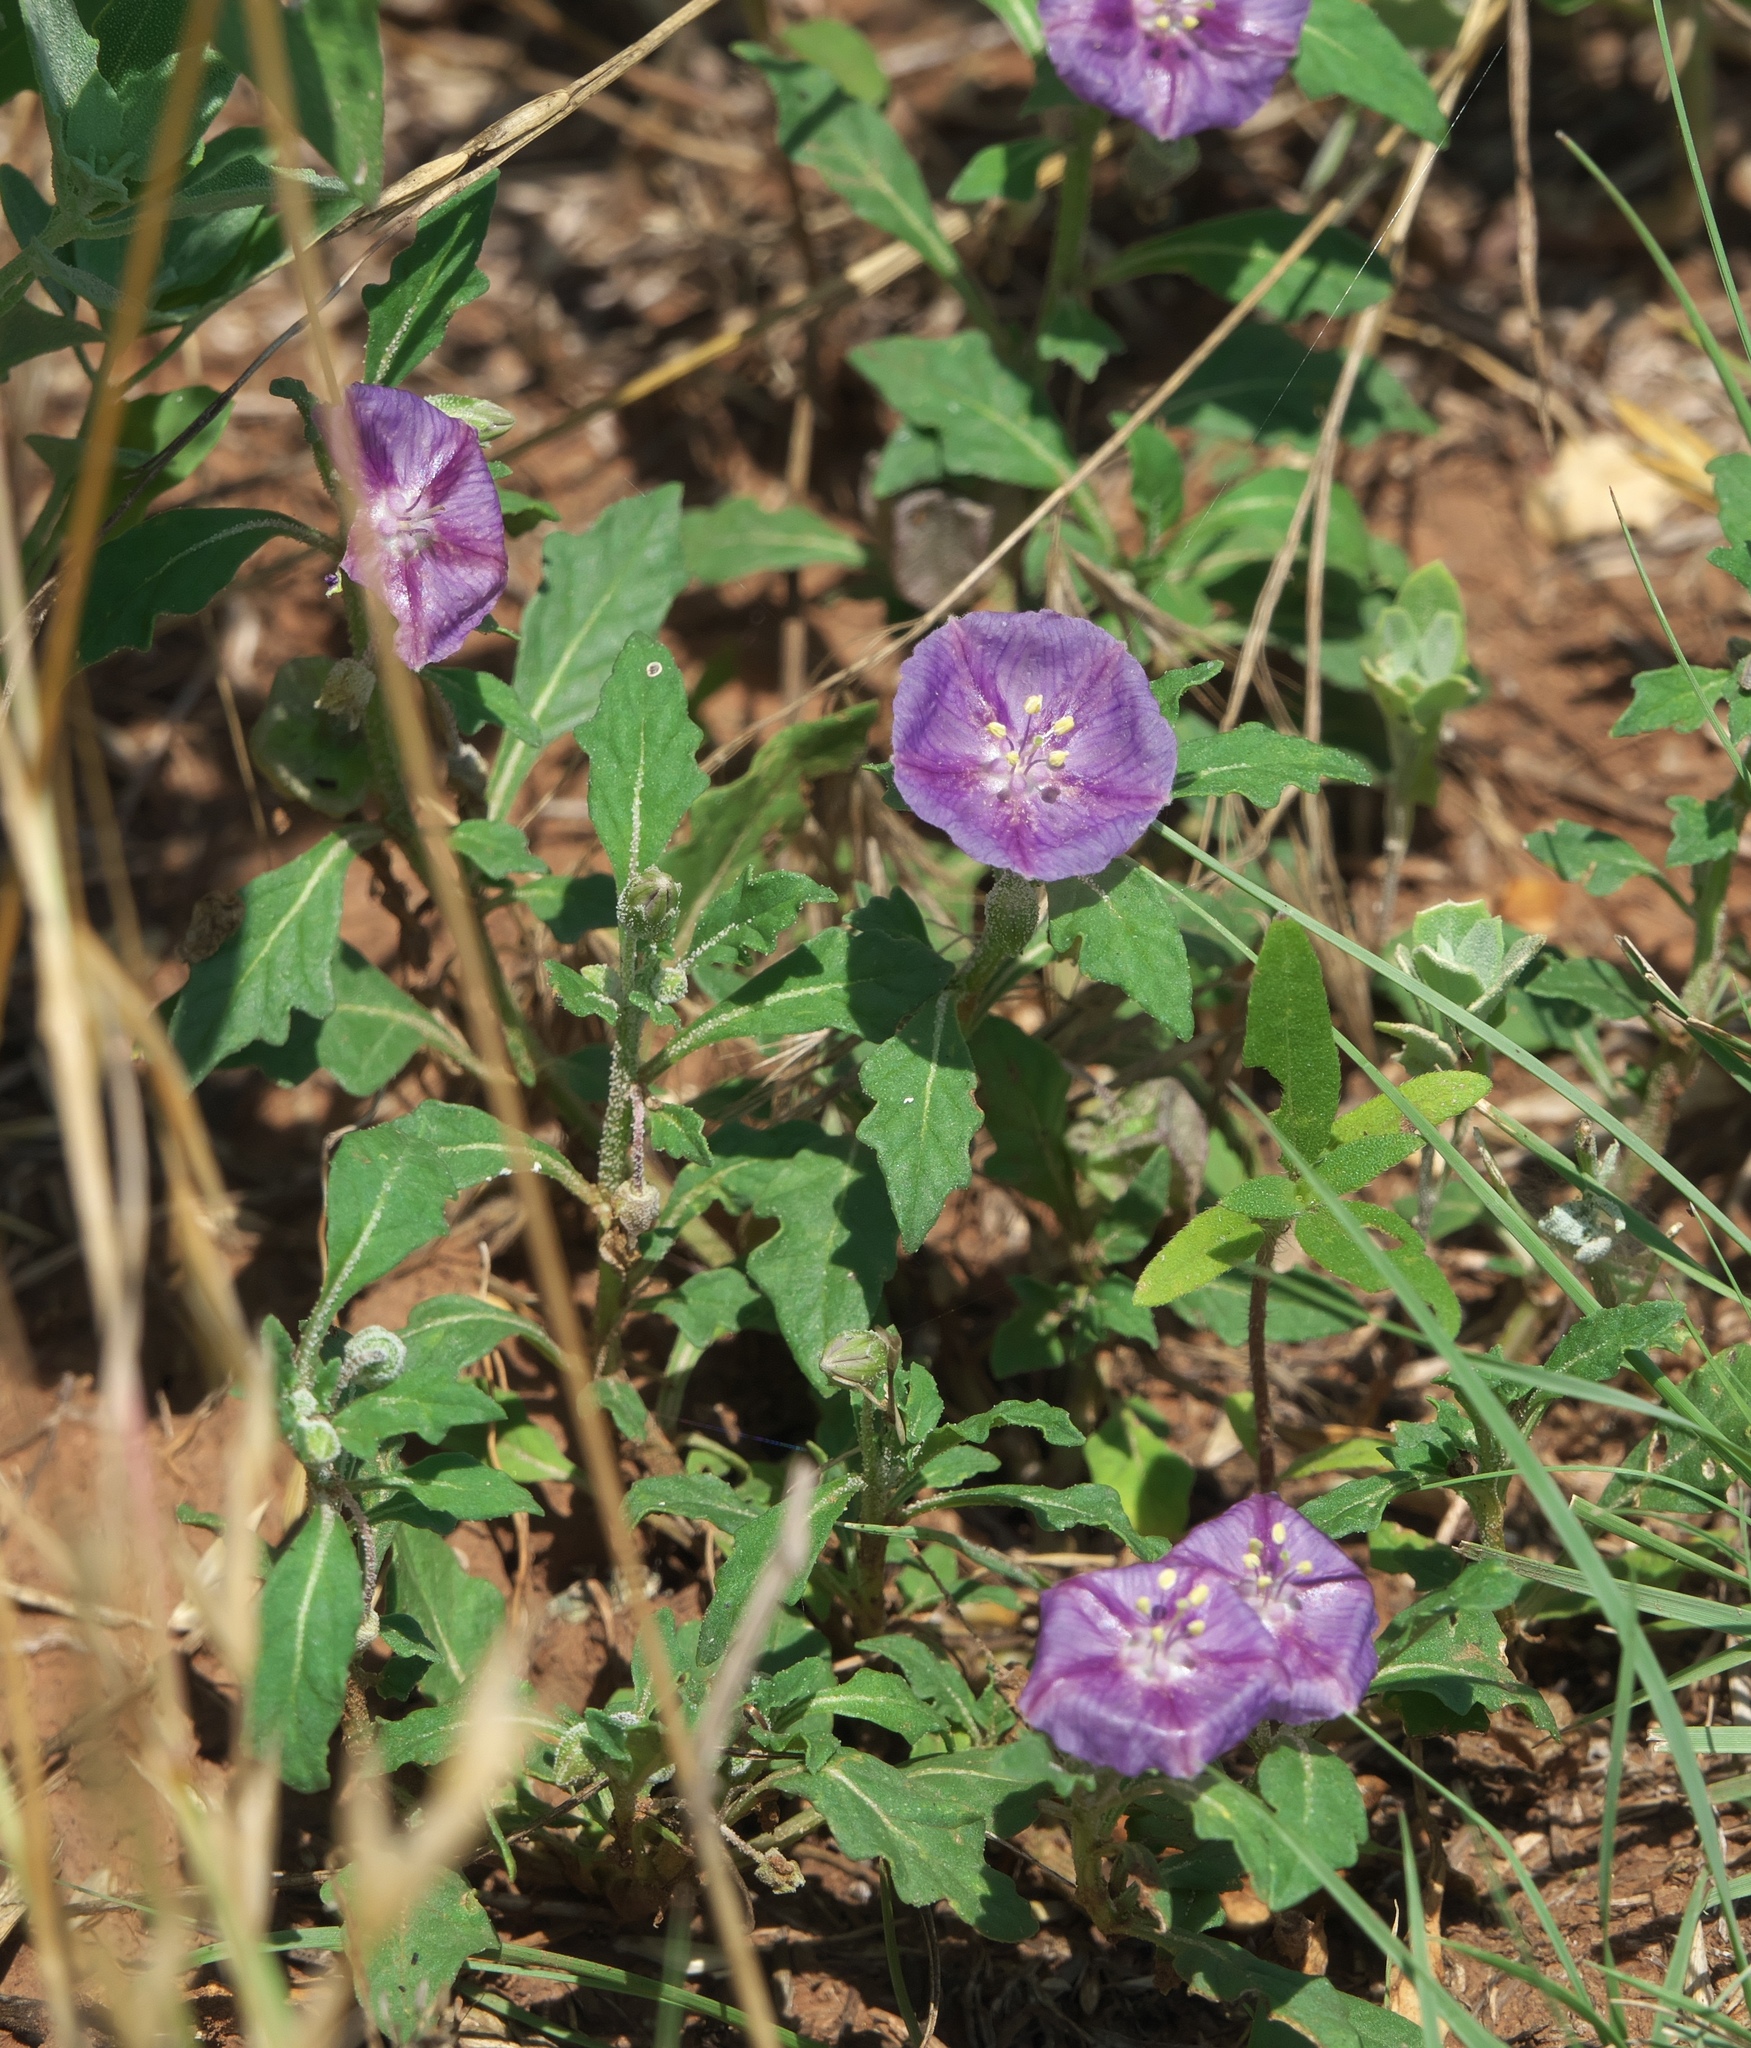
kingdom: Plantae
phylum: Tracheophyta
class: Magnoliopsida
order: Solanales
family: Solanaceae
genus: Quincula
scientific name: Quincula lobata
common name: Purple-ground-cherry
